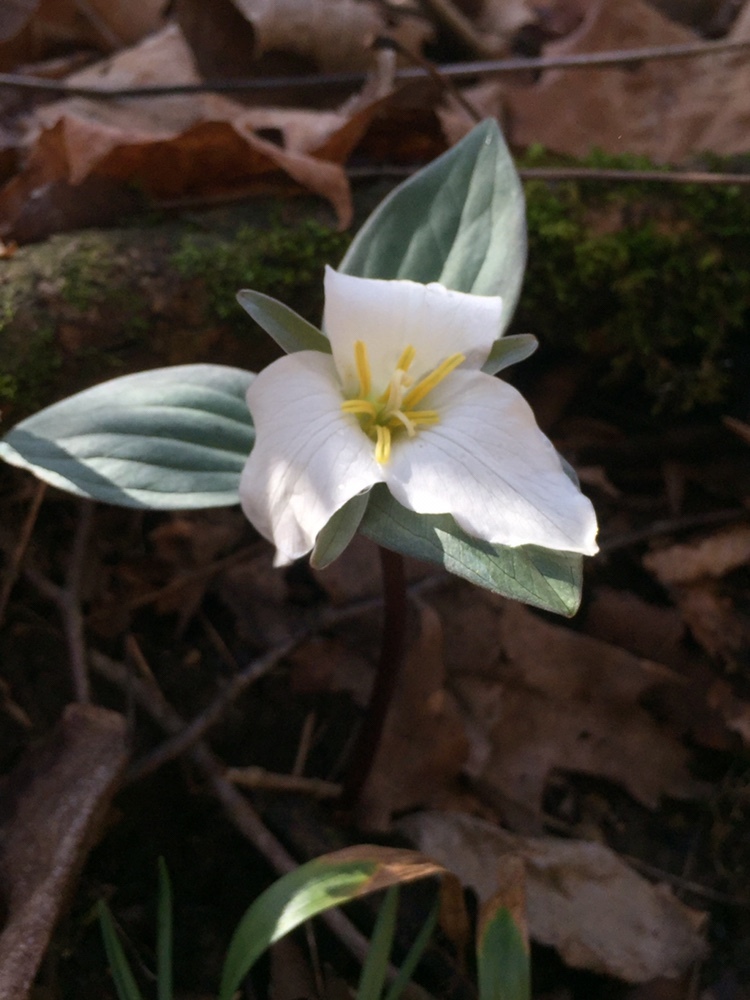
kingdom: Plantae
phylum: Tracheophyta
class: Liliopsida
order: Liliales
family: Melanthiaceae
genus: Trillium
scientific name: Trillium nivale
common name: Dwarf white trillium
